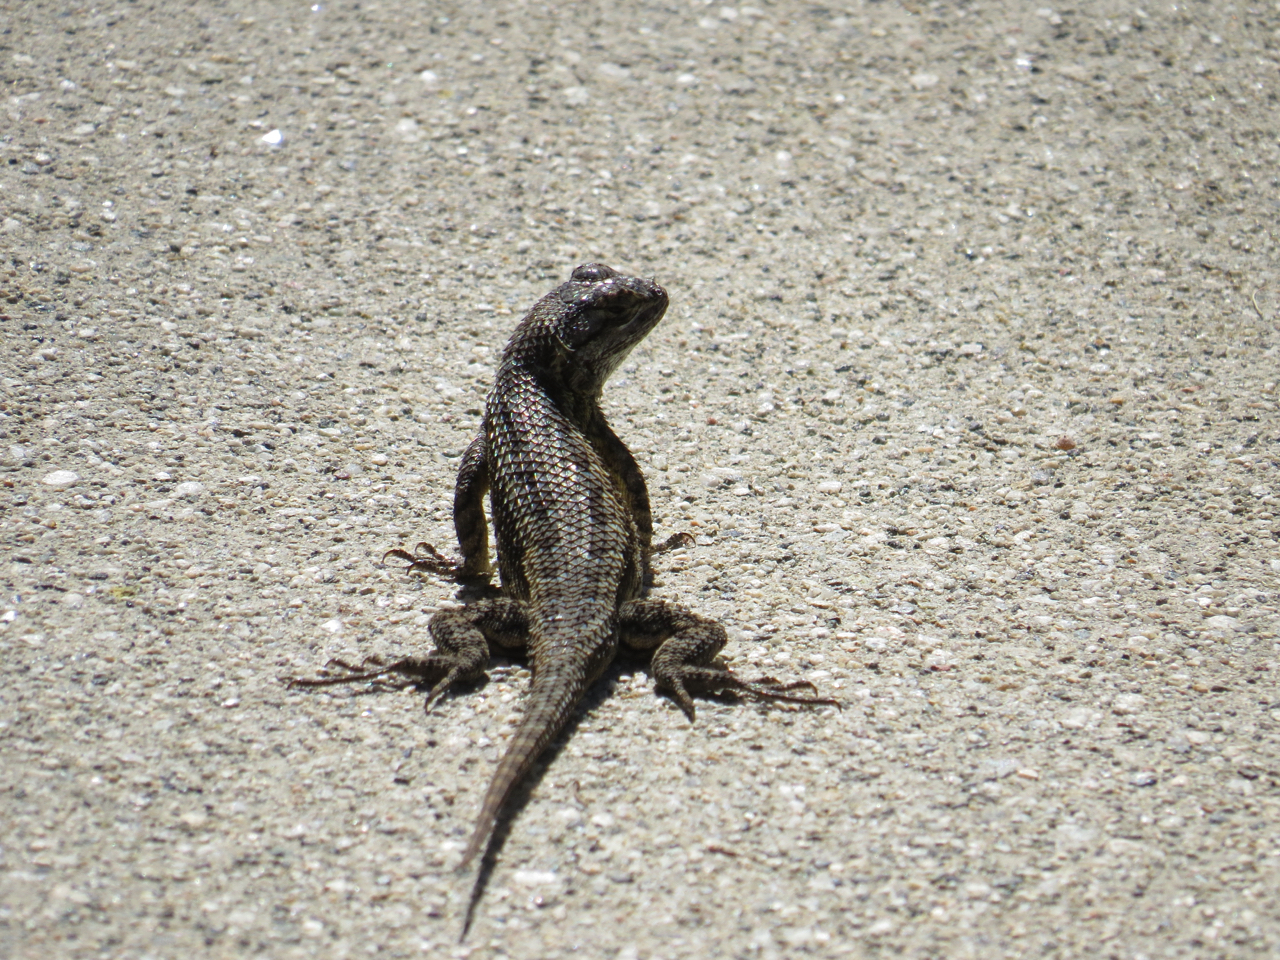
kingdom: Animalia
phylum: Chordata
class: Squamata
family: Phrynosomatidae
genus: Sceloporus
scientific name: Sceloporus occidentalis
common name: Western fence lizard
